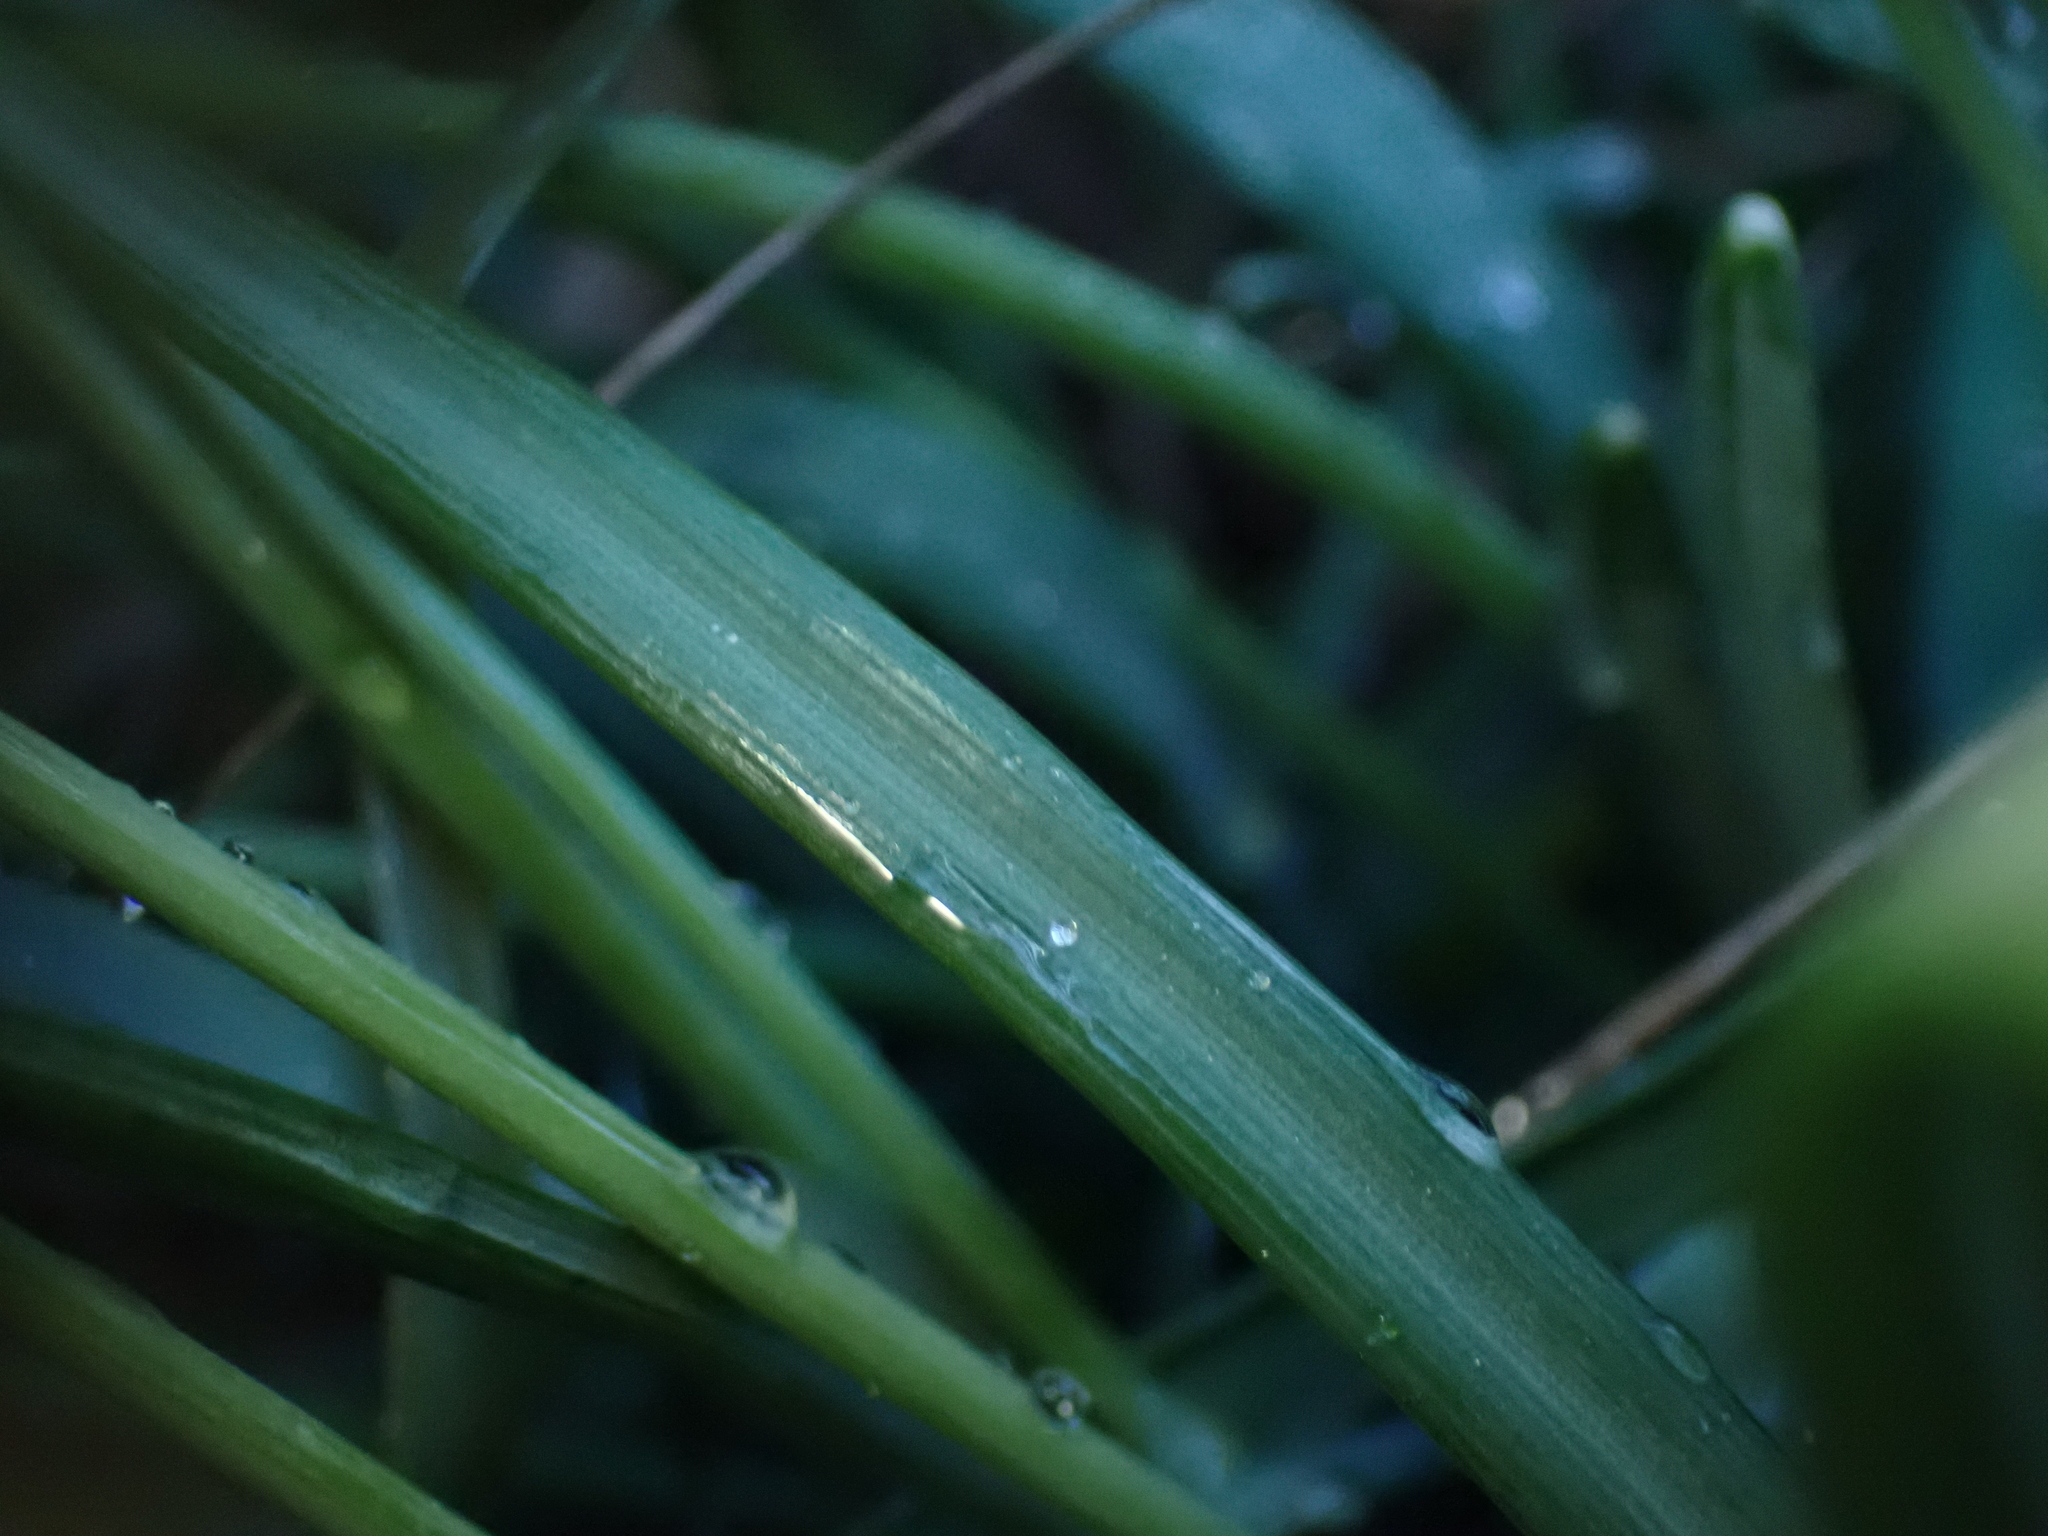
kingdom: Plantae
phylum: Tracheophyta
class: Liliopsida
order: Asparagales
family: Amaryllidaceae
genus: Galanthus
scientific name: Galanthus nivalis
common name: Snowdrop
